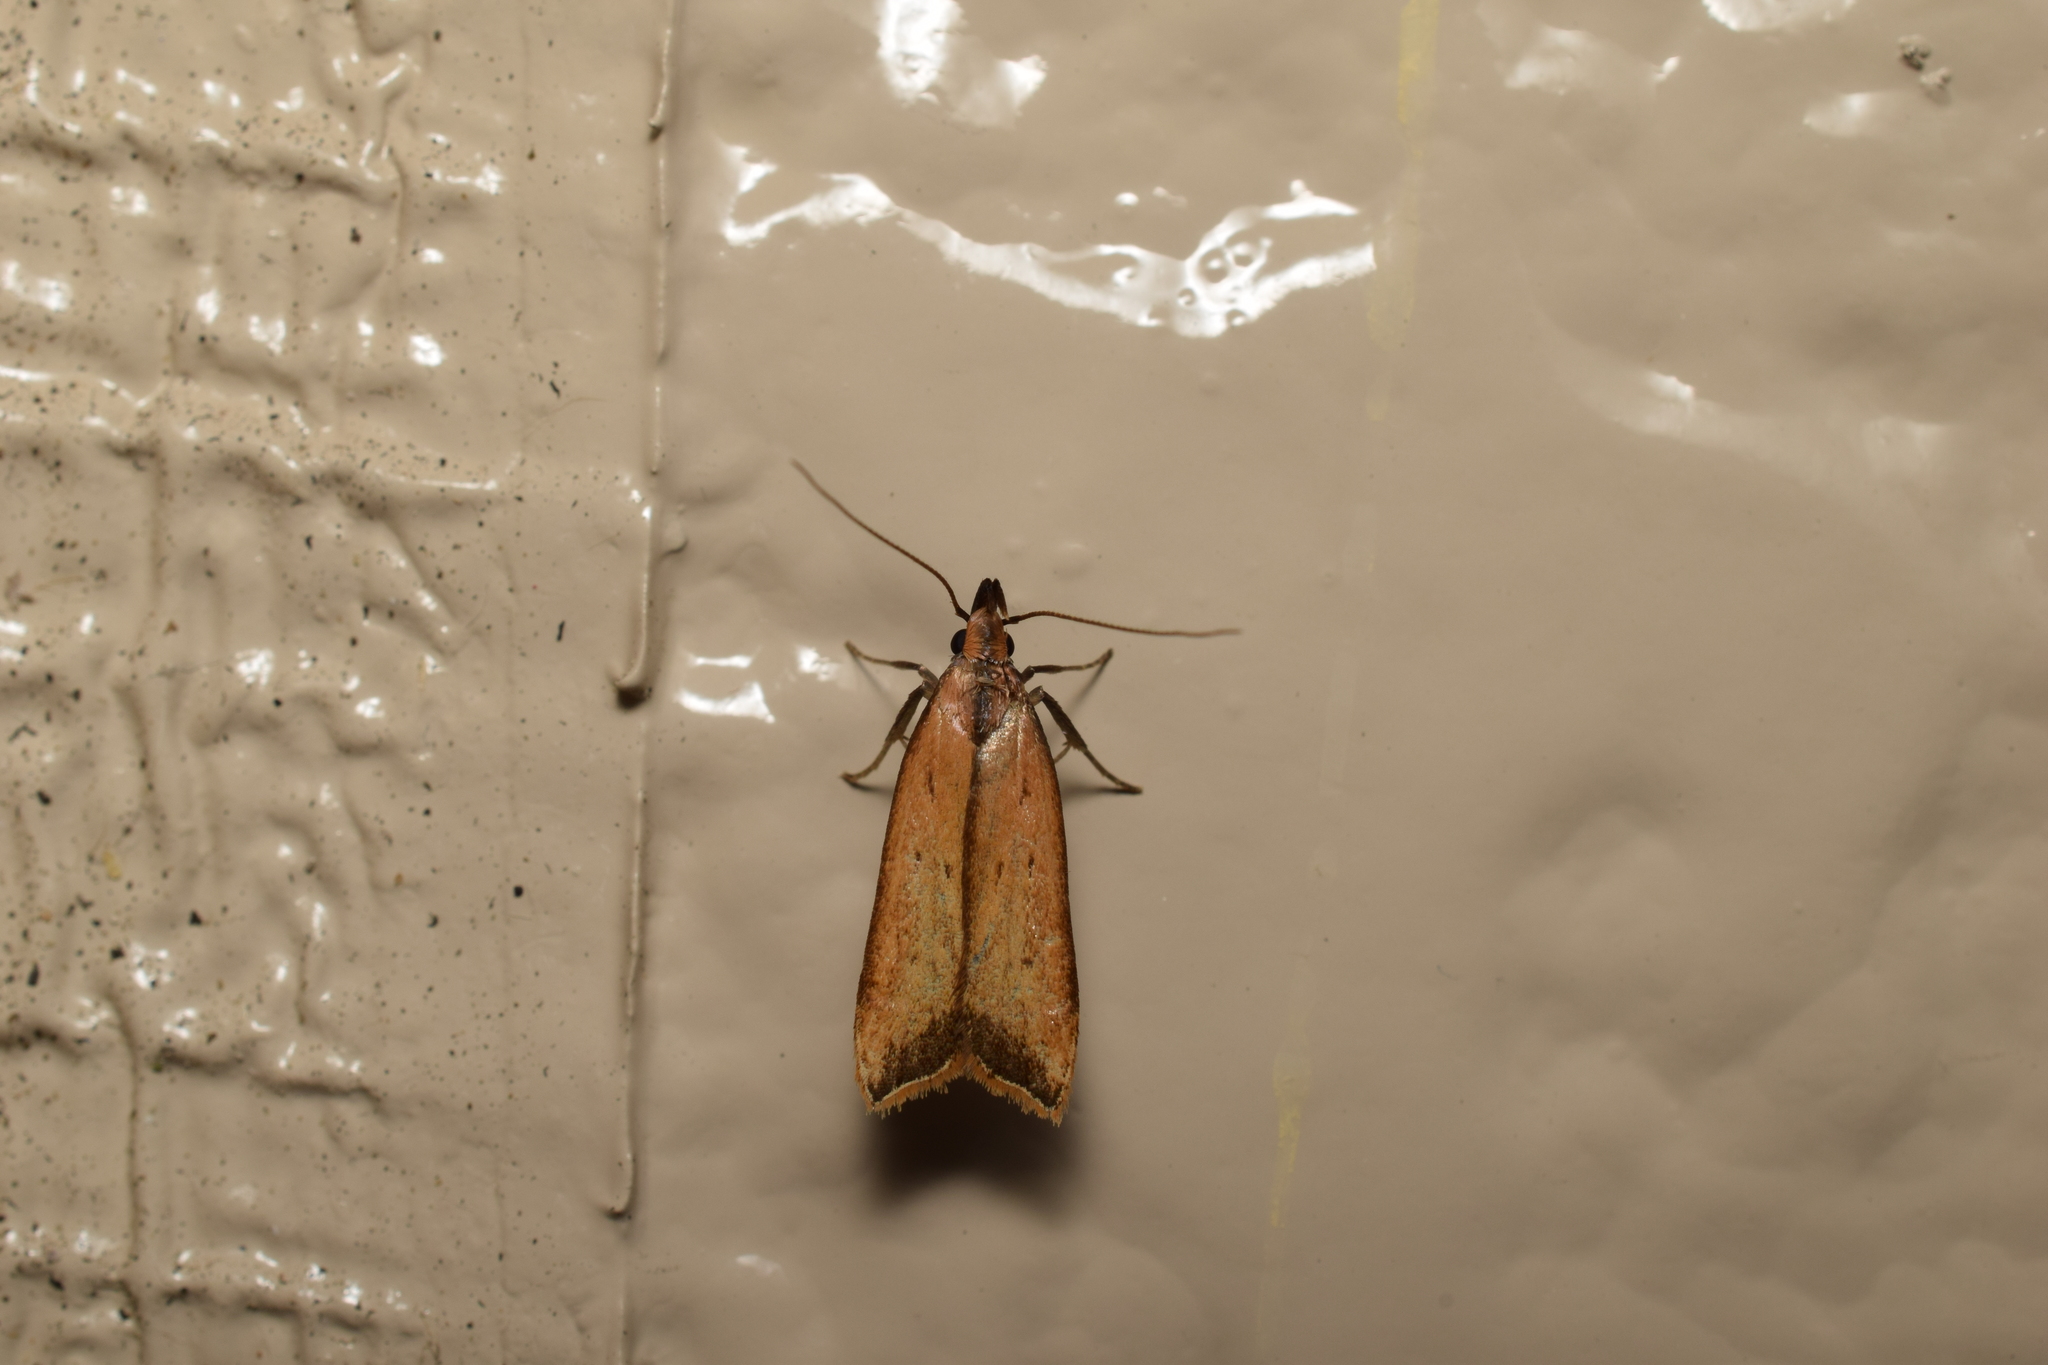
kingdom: Animalia
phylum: Arthropoda
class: Insecta
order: Lepidoptera
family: Gelechiidae
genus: Dichomeris
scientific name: Dichomeris heriguronis
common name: Black-edged dichomeris moth
